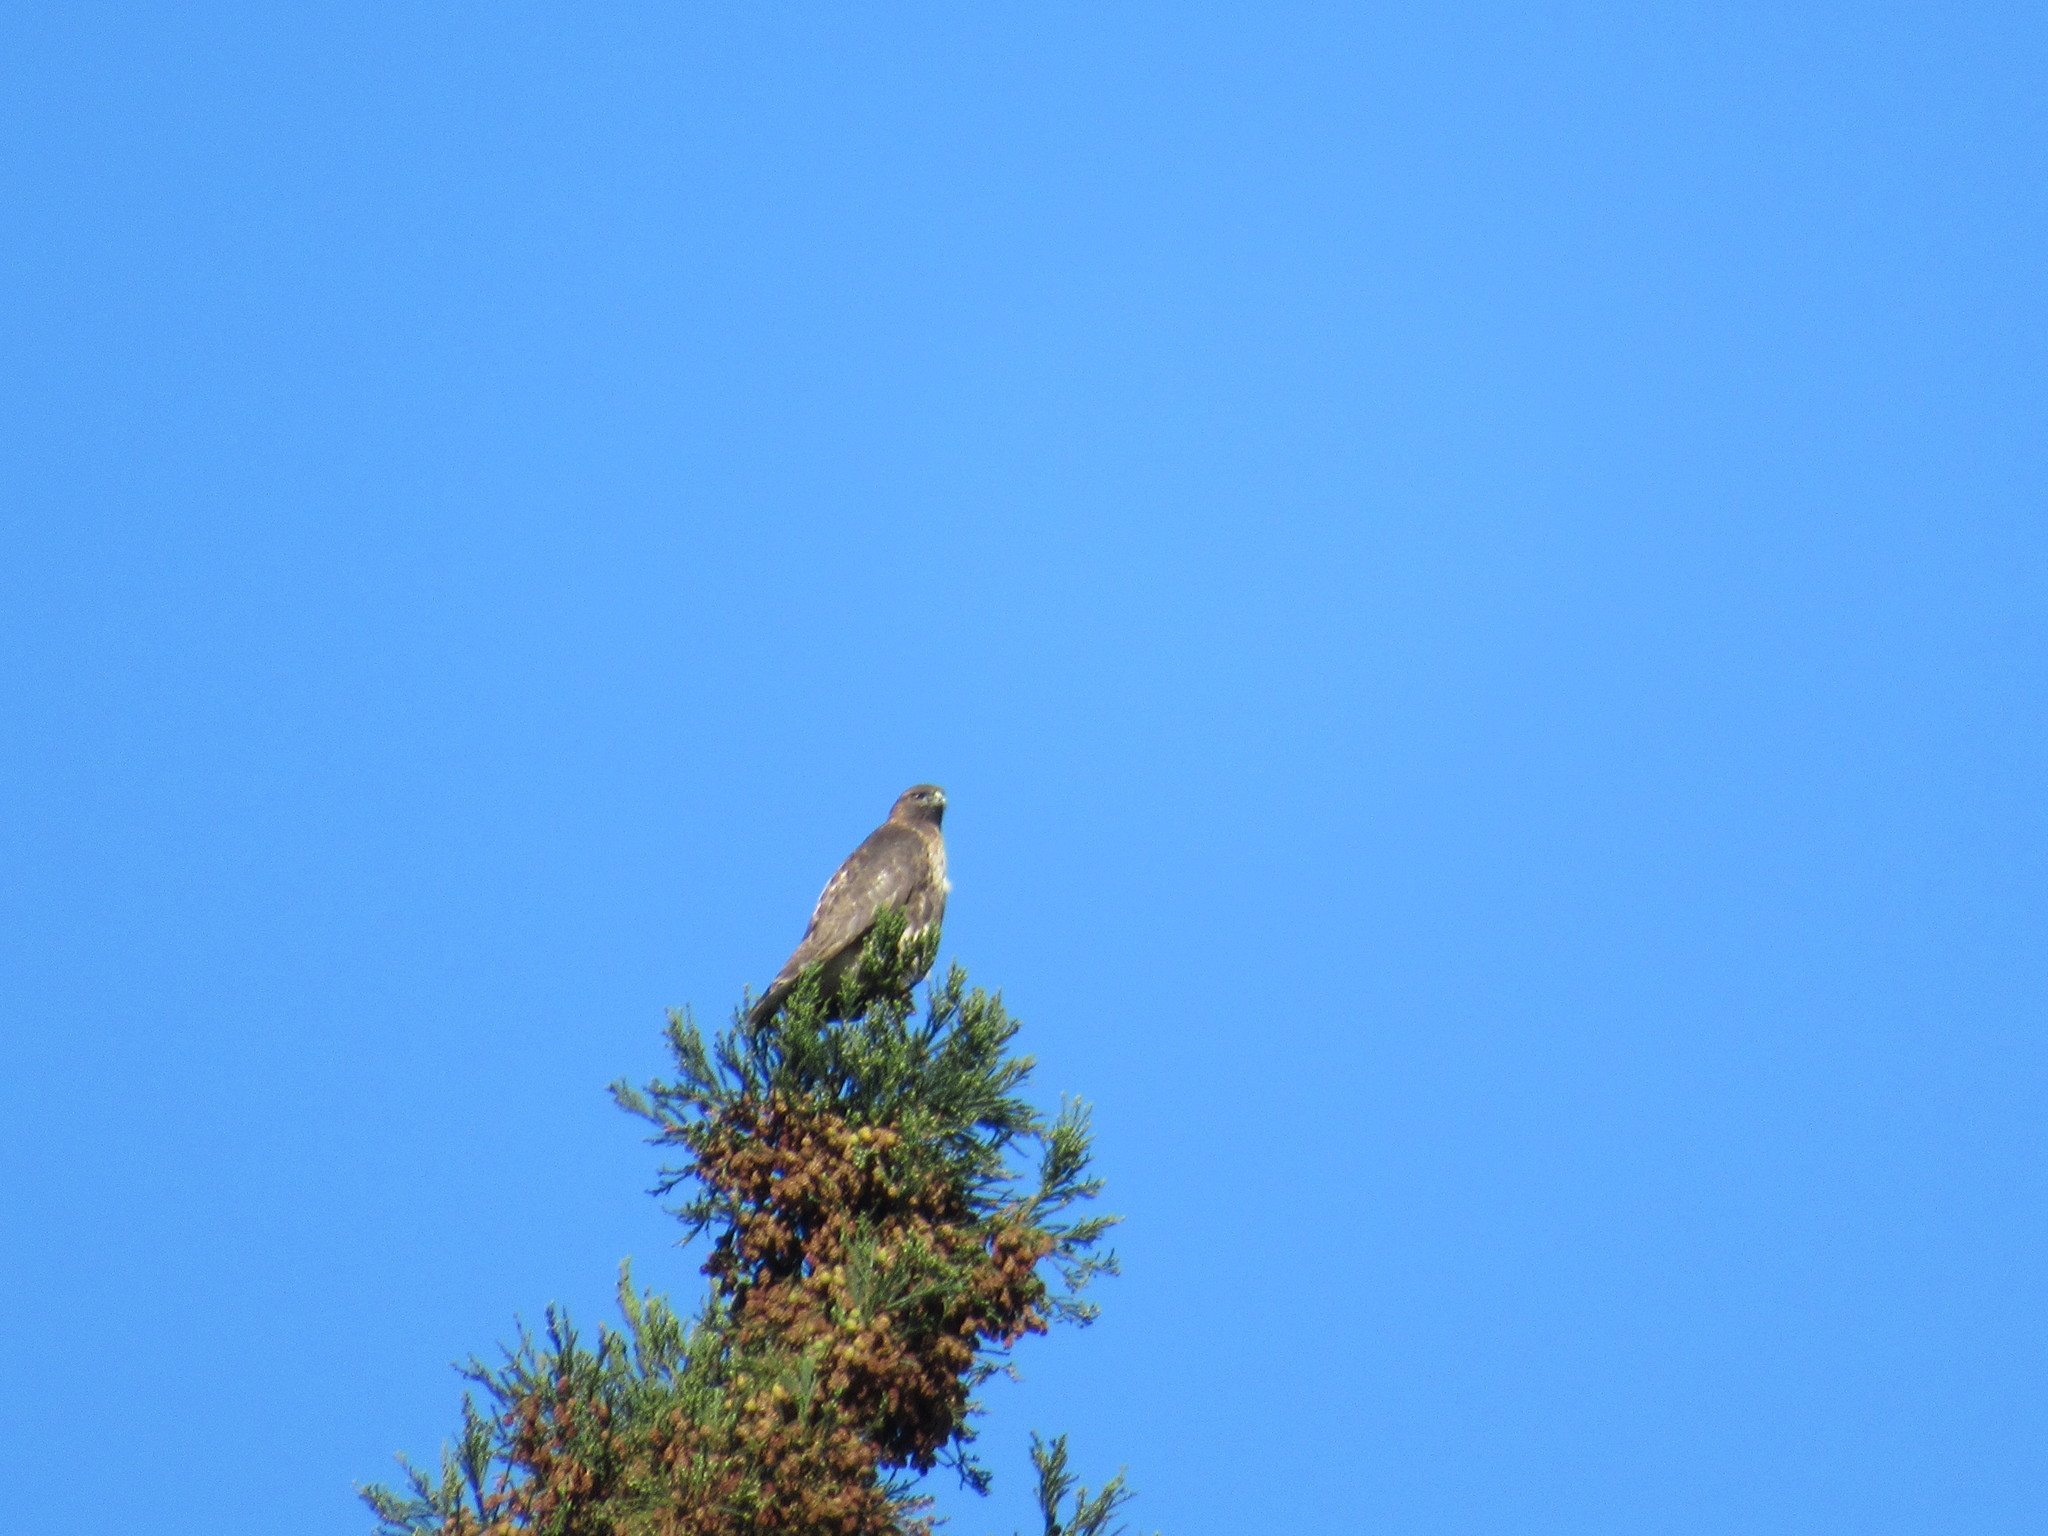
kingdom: Animalia
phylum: Chordata
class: Aves
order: Accipitriformes
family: Accipitridae
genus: Buteo
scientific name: Buteo jamaicensis
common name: Red-tailed hawk
